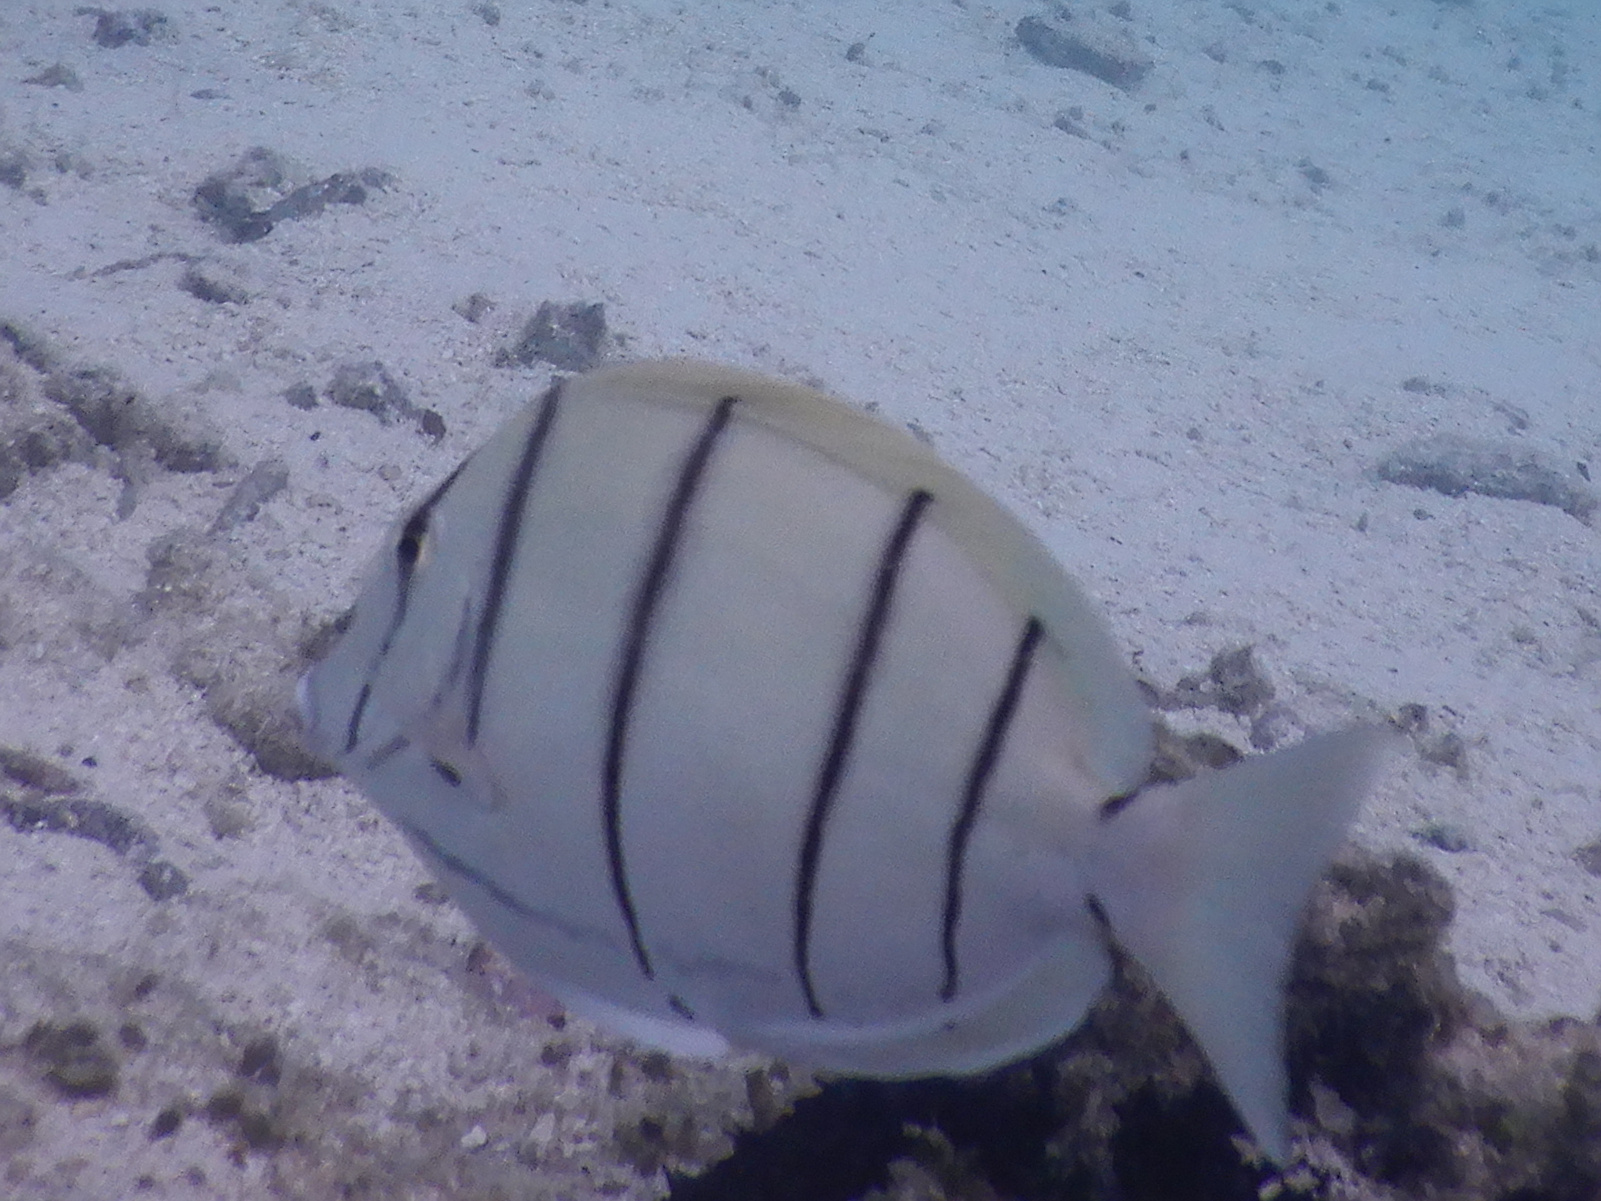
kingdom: Animalia
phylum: Chordata
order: Perciformes
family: Acanthuridae
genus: Acanthurus
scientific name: Acanthurus triostegus
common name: Convict surgeonfish
